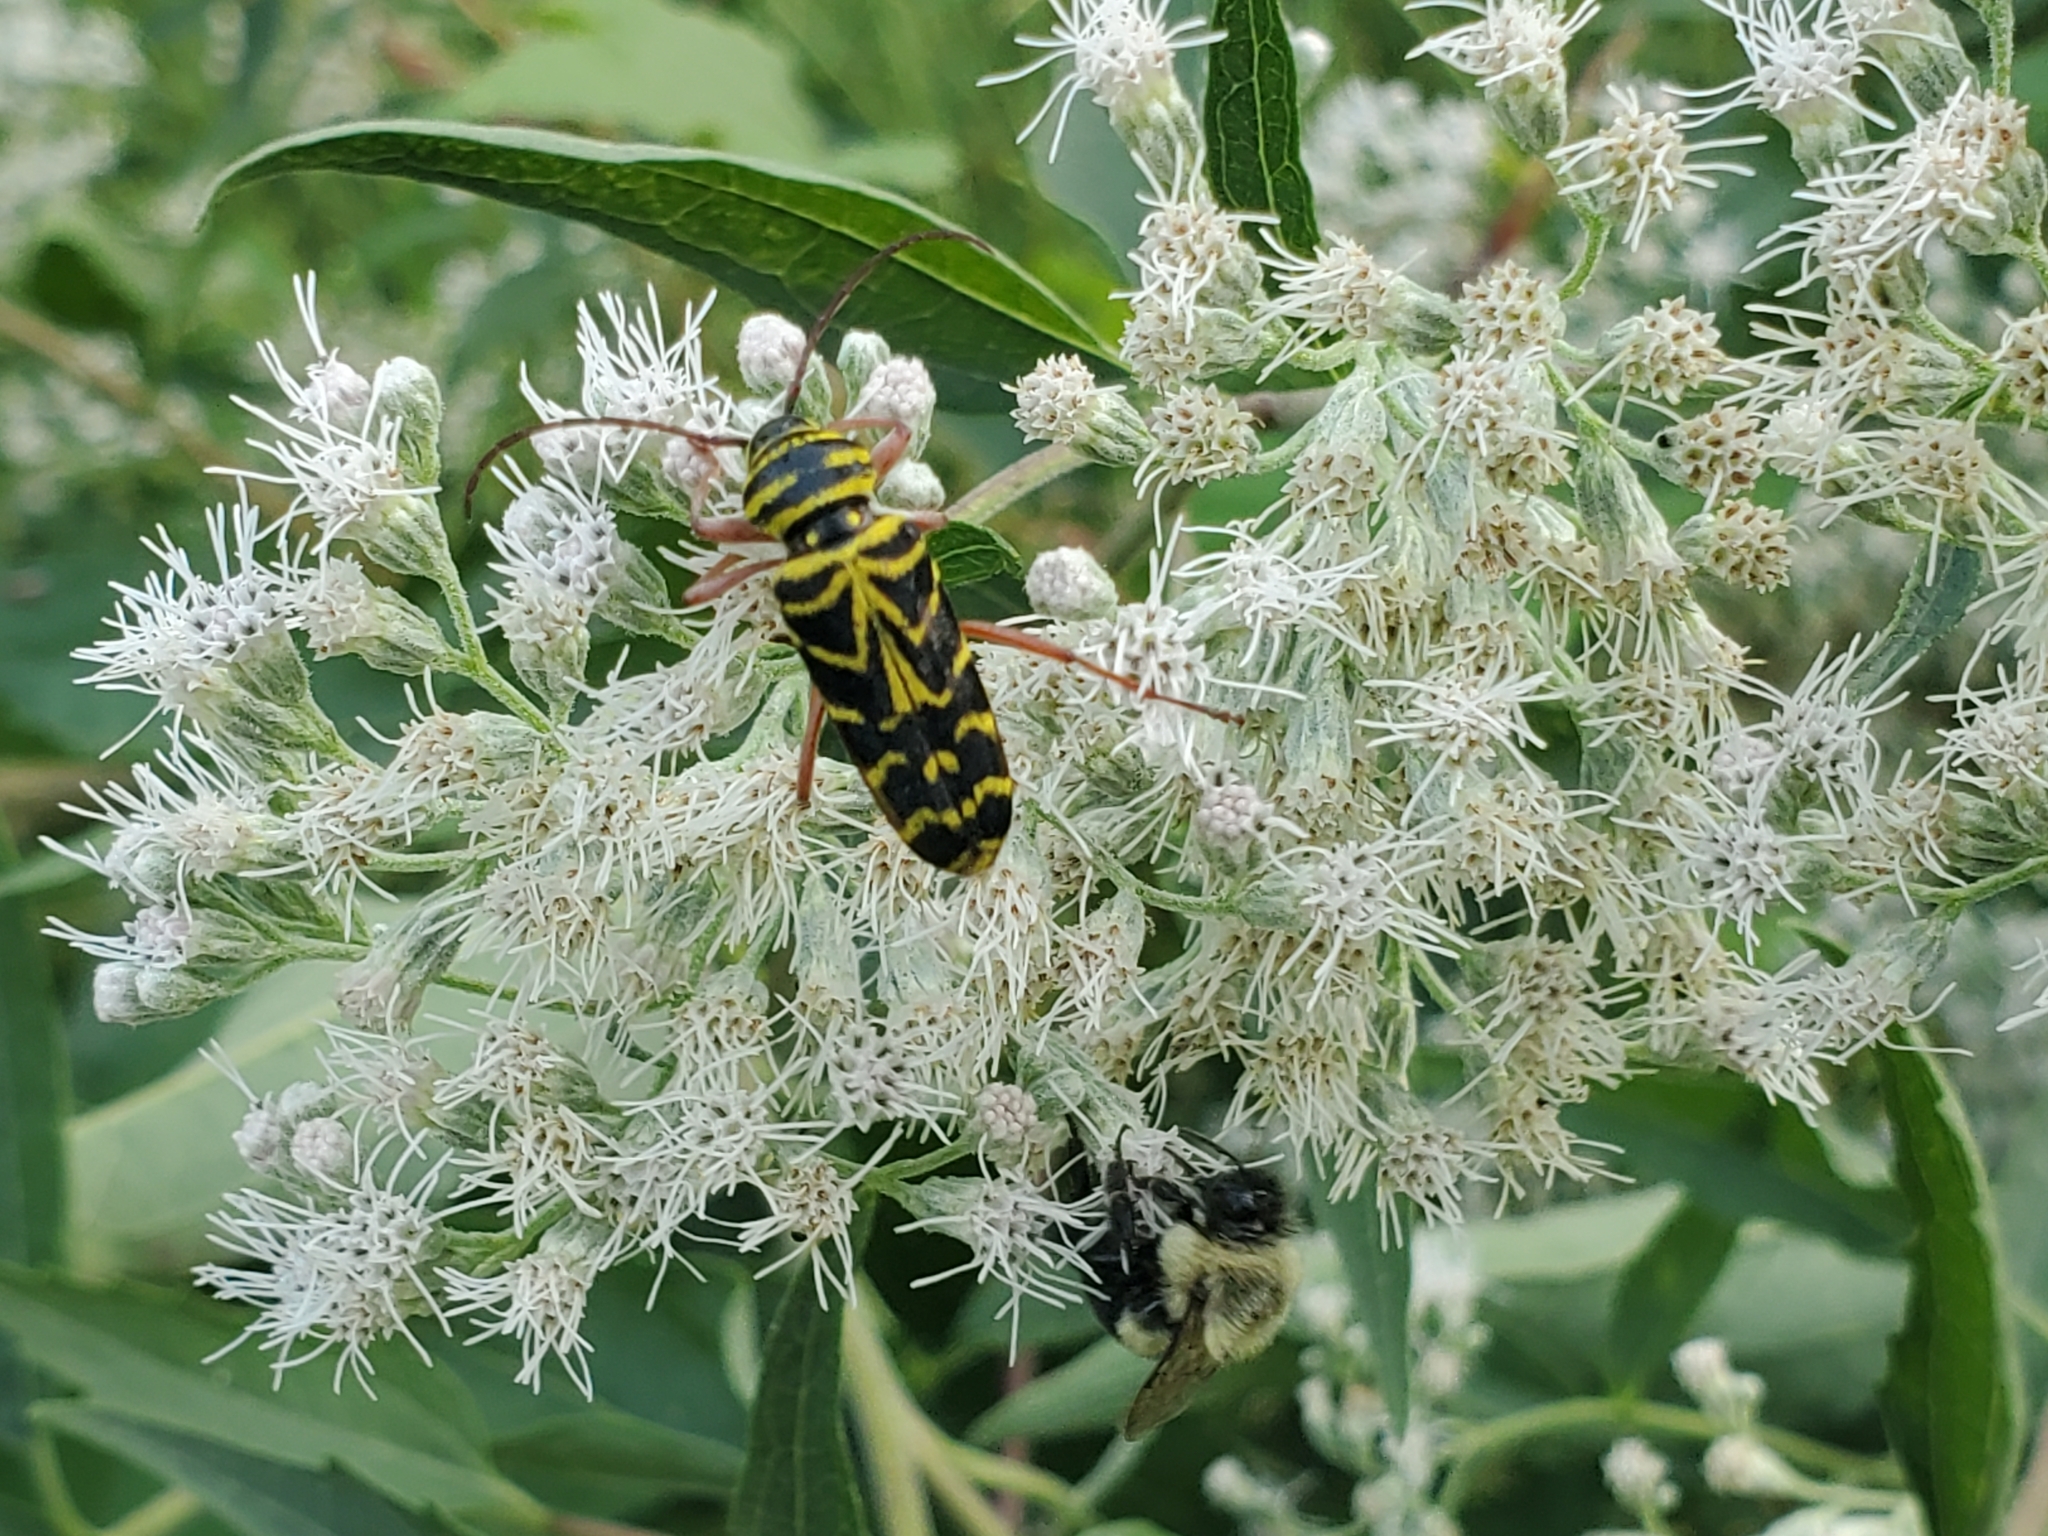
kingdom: Animalia
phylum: Arthropoda
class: Insecta
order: Coleoptera
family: Cerambycidae
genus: Megacyllene
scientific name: Megacyllene robiniae
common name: Locust borer
